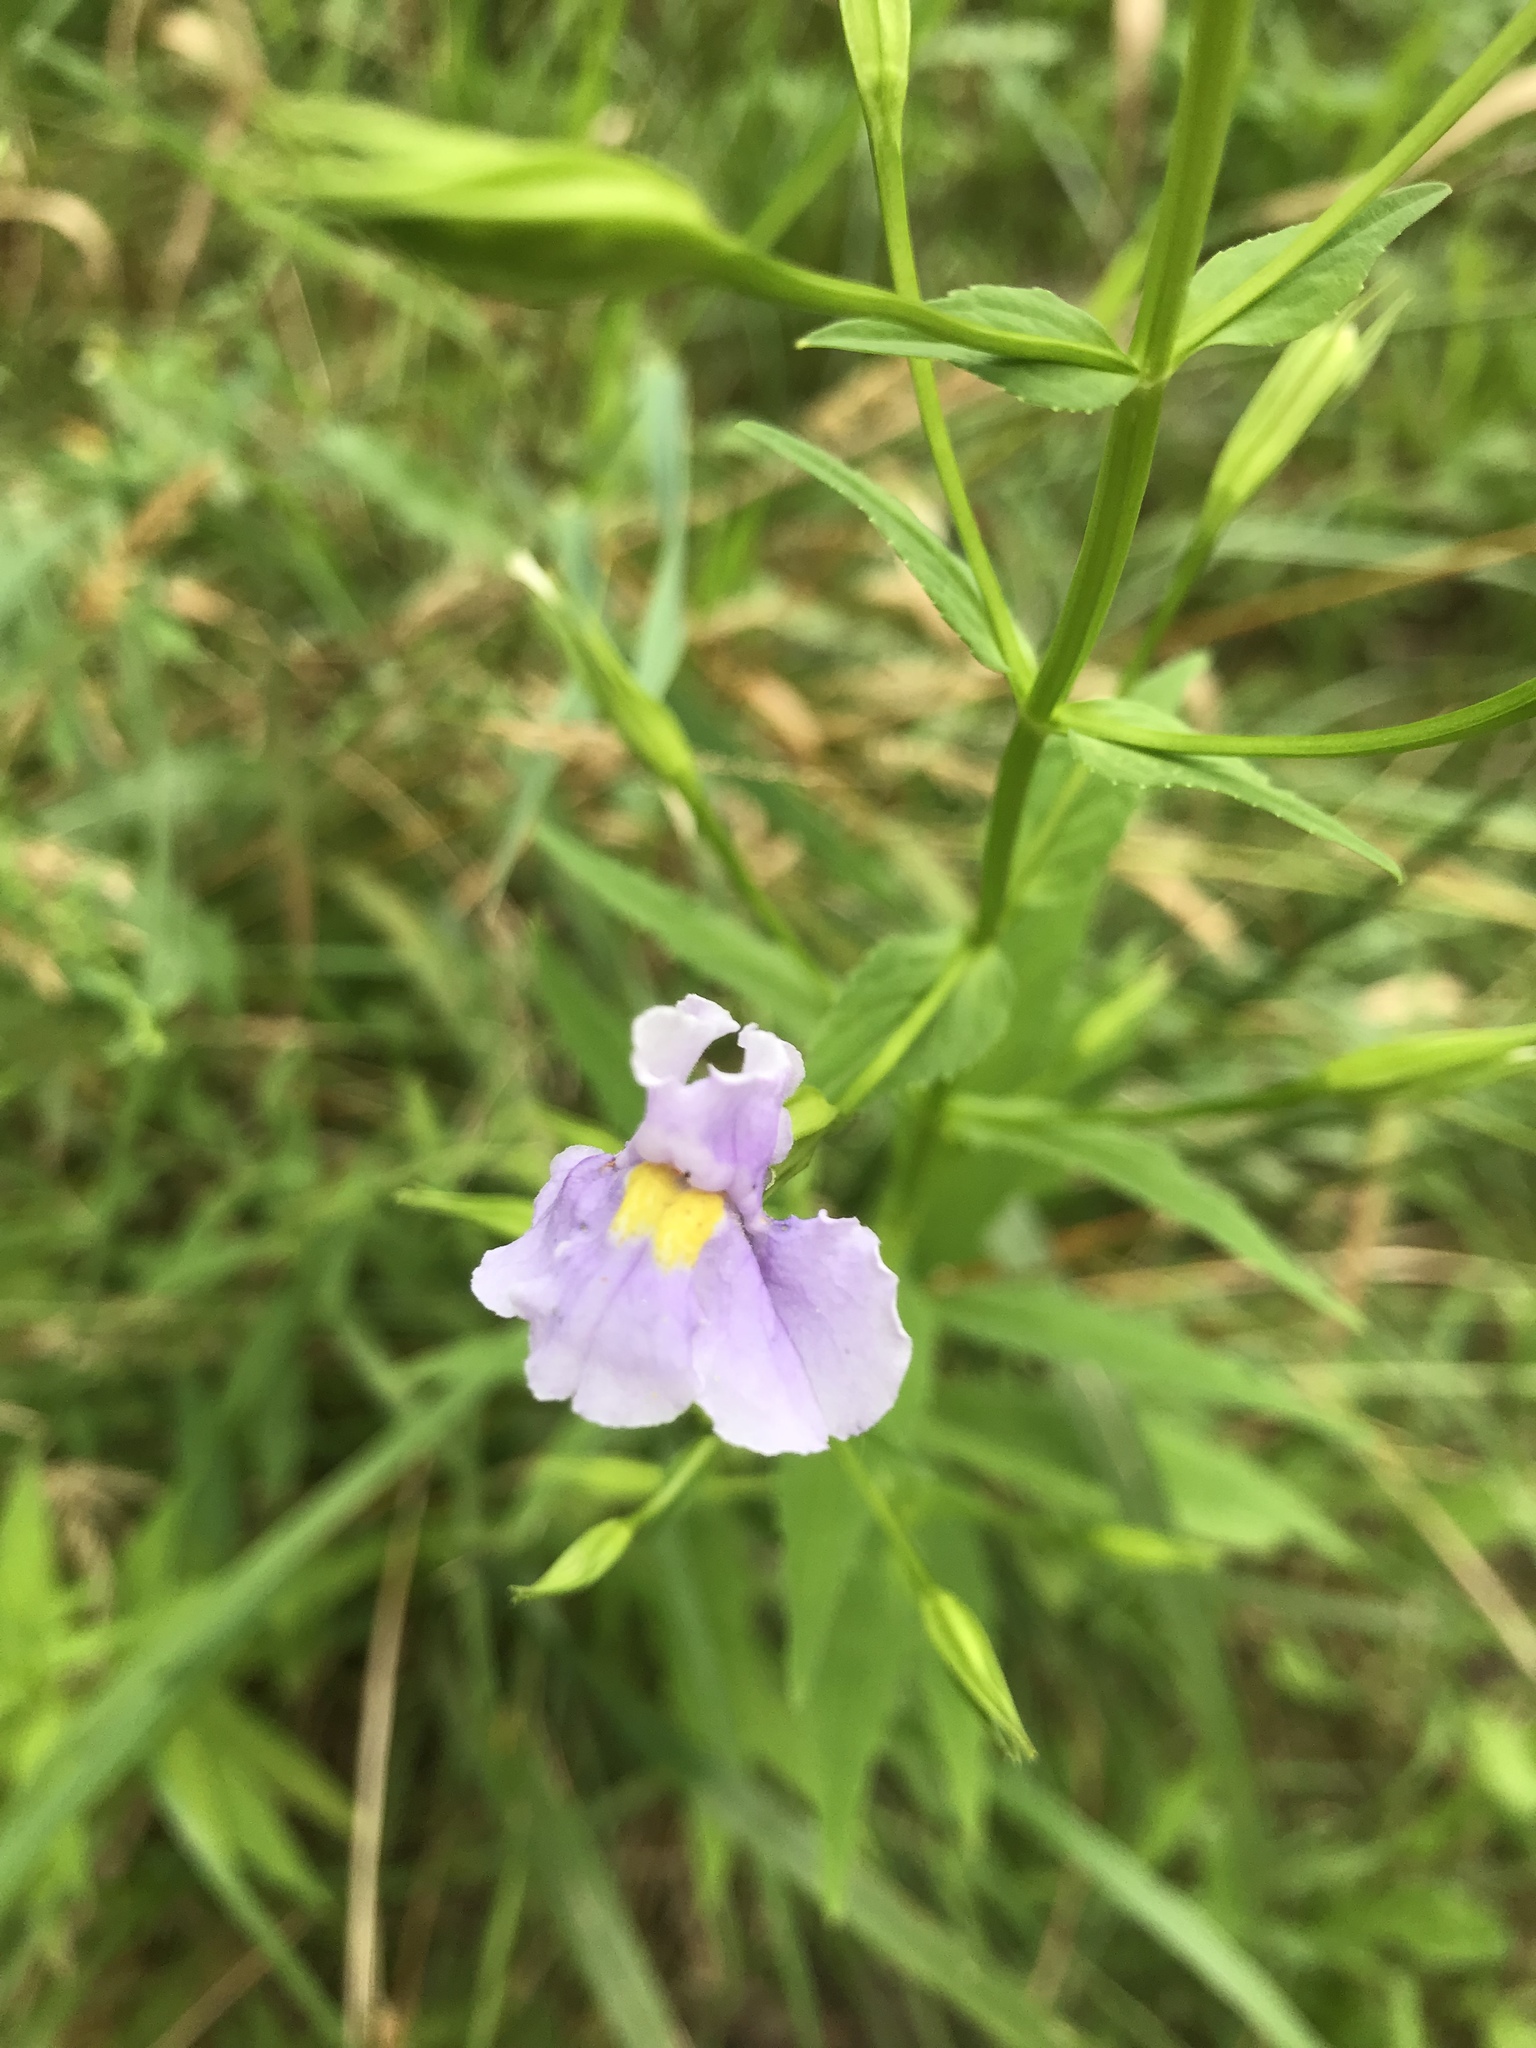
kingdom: Plantae
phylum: Tracheophyta
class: Magnoliopsida
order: Lamiales
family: Phrymaceae
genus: Mimulus
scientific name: Mimulus ringens
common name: Allegheny monkeyflower
